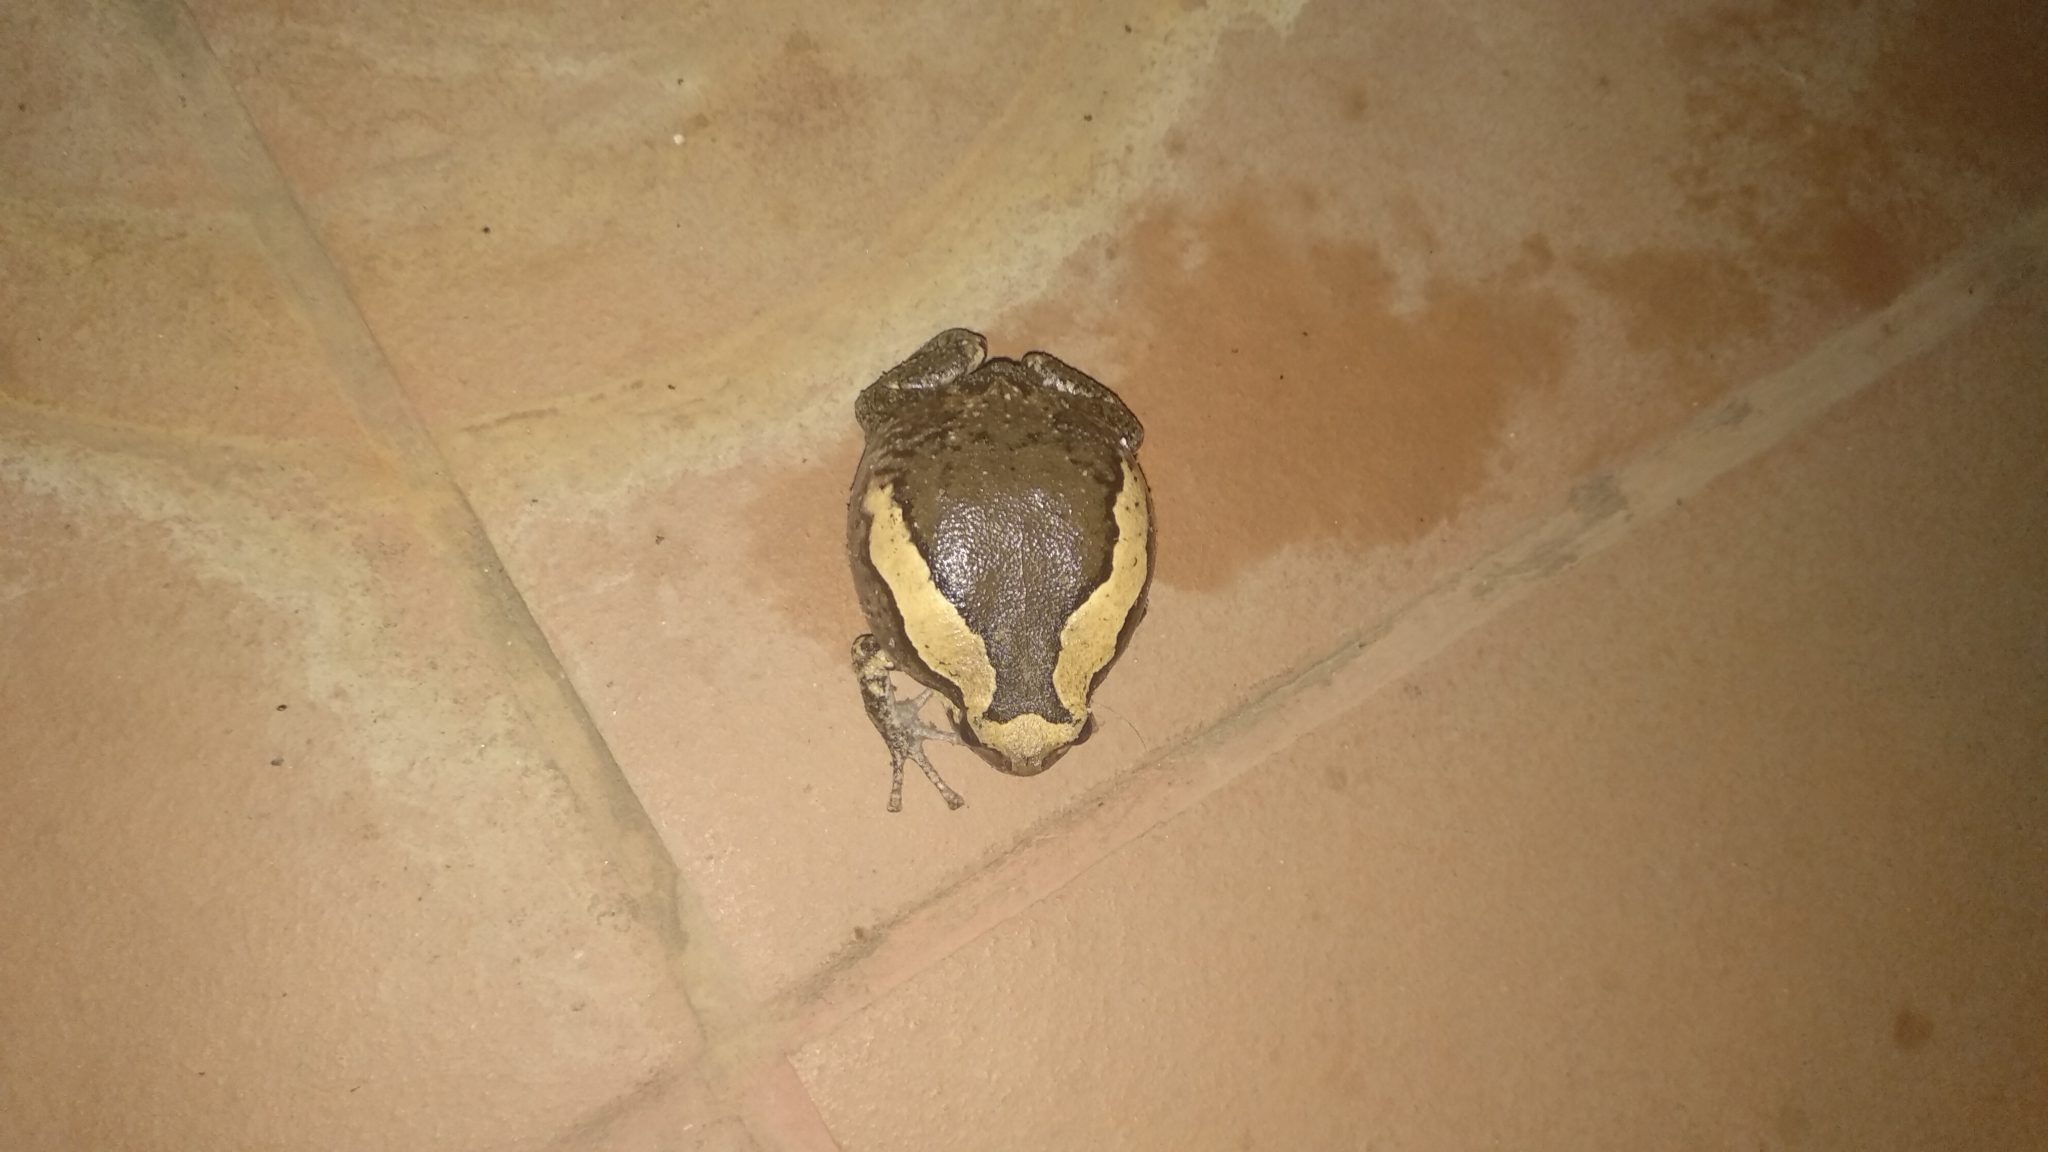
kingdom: Animalia
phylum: Chordata
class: Amphibia
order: Anura
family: Microhylidae
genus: Kaloula
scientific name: Kaloula pulchra
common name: Common,banded bullfrog
